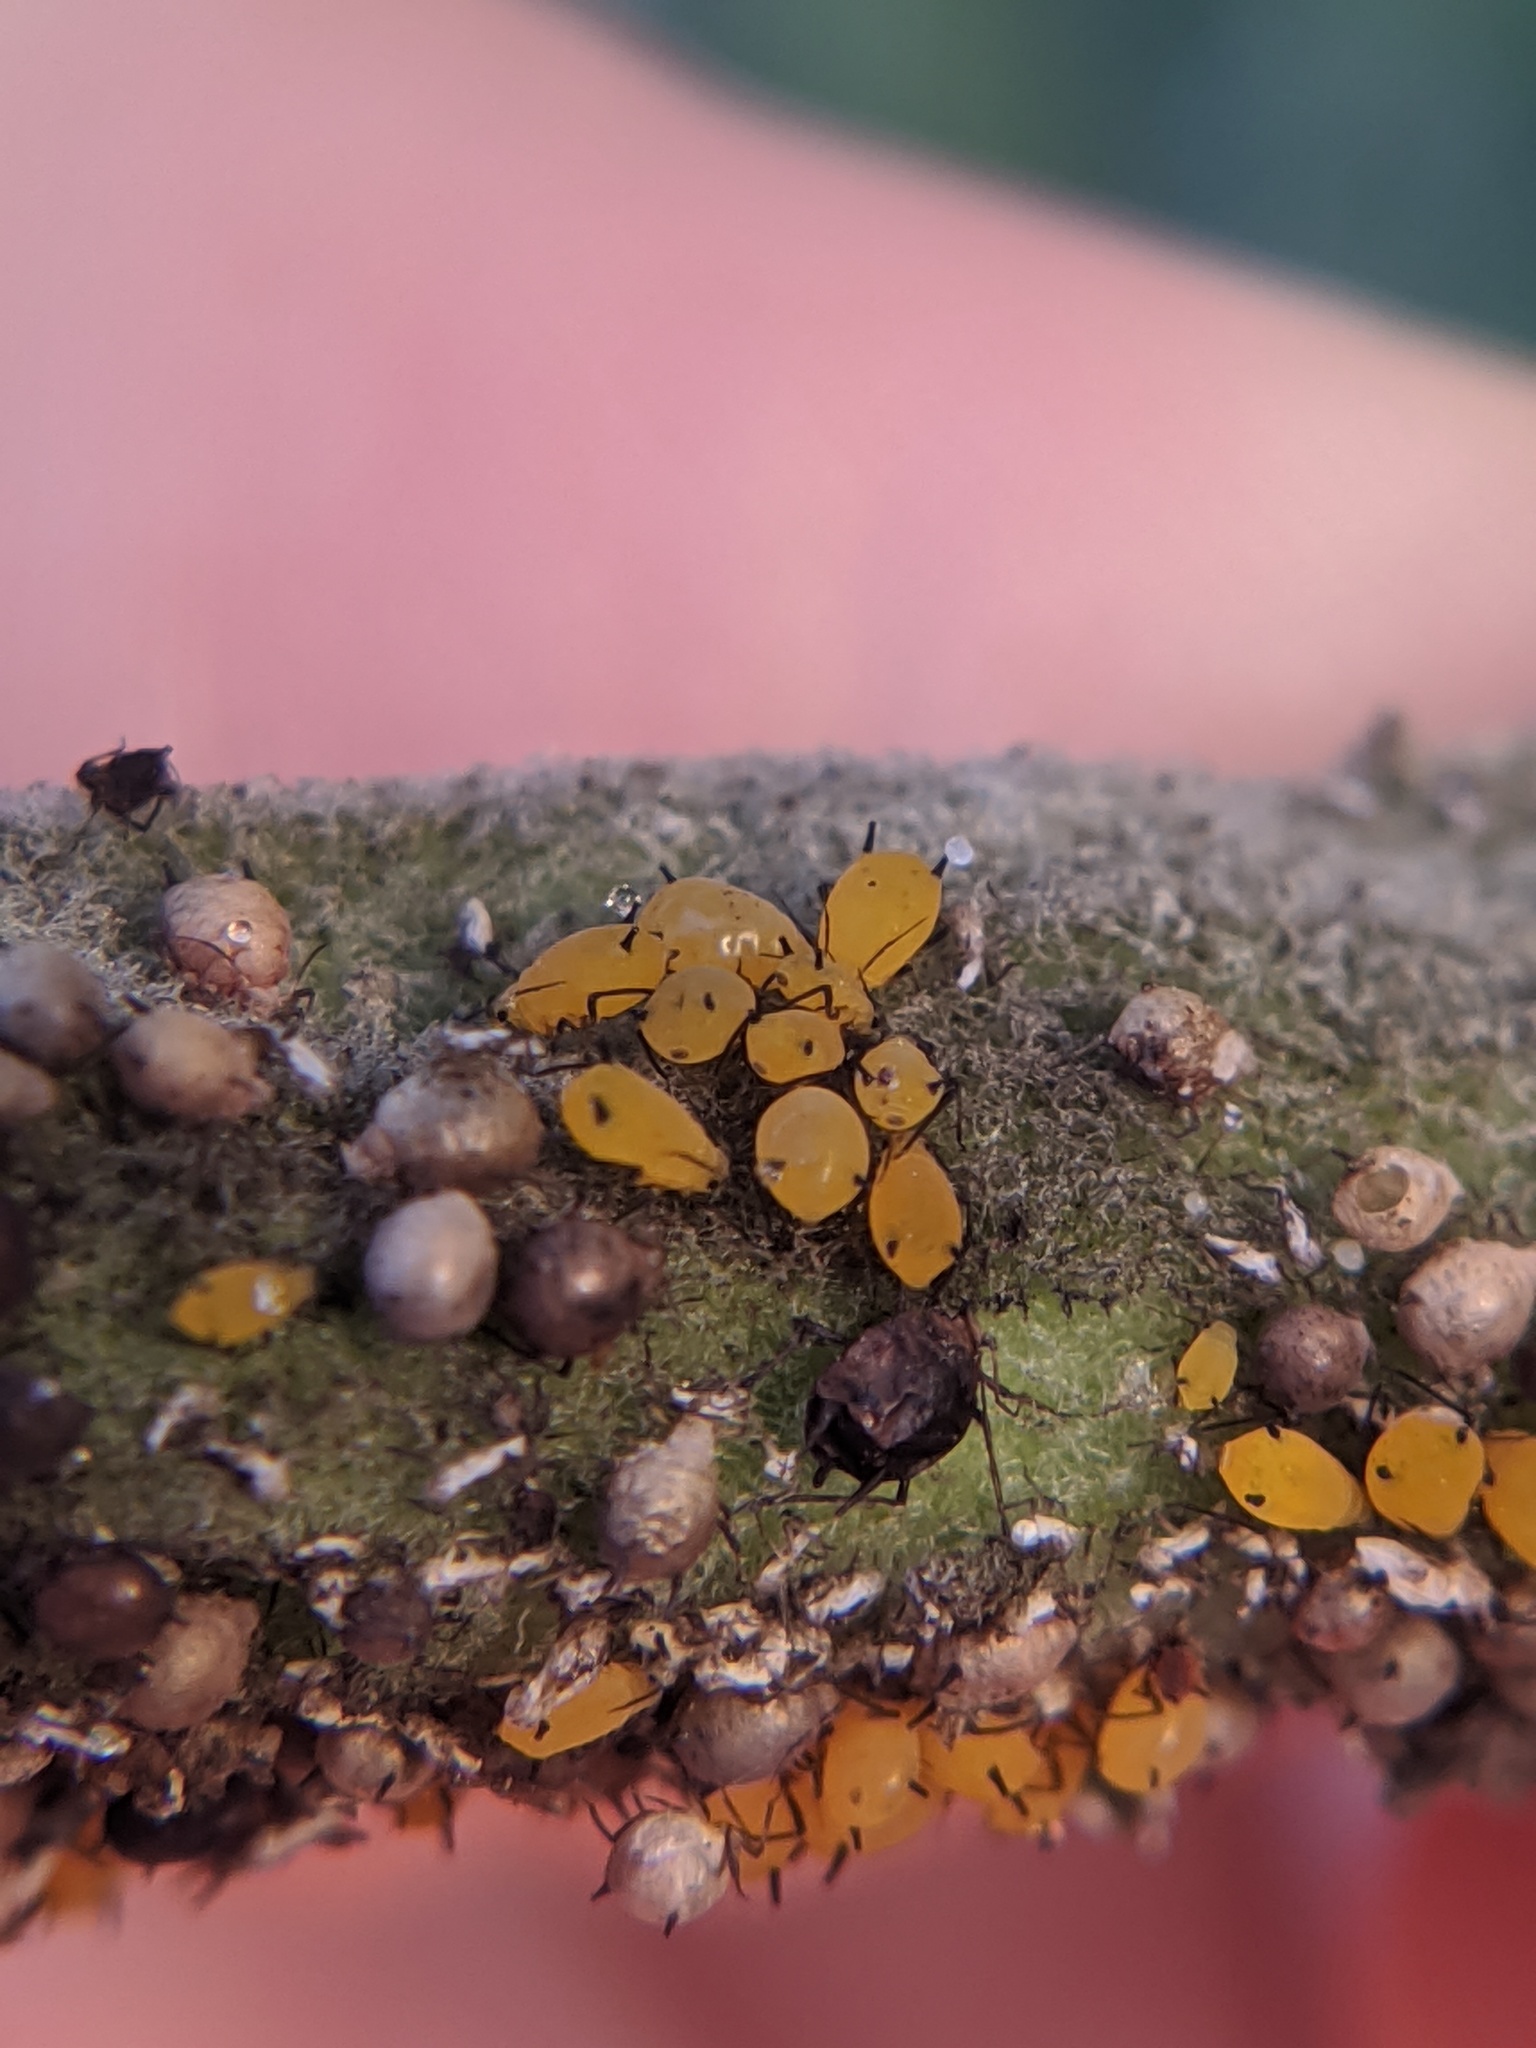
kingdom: Animalia
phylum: Arthropoda
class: Insecta
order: Hemiptera
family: Aphididae
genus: Aphis
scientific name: Aphis nerii
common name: Oleander aphid
